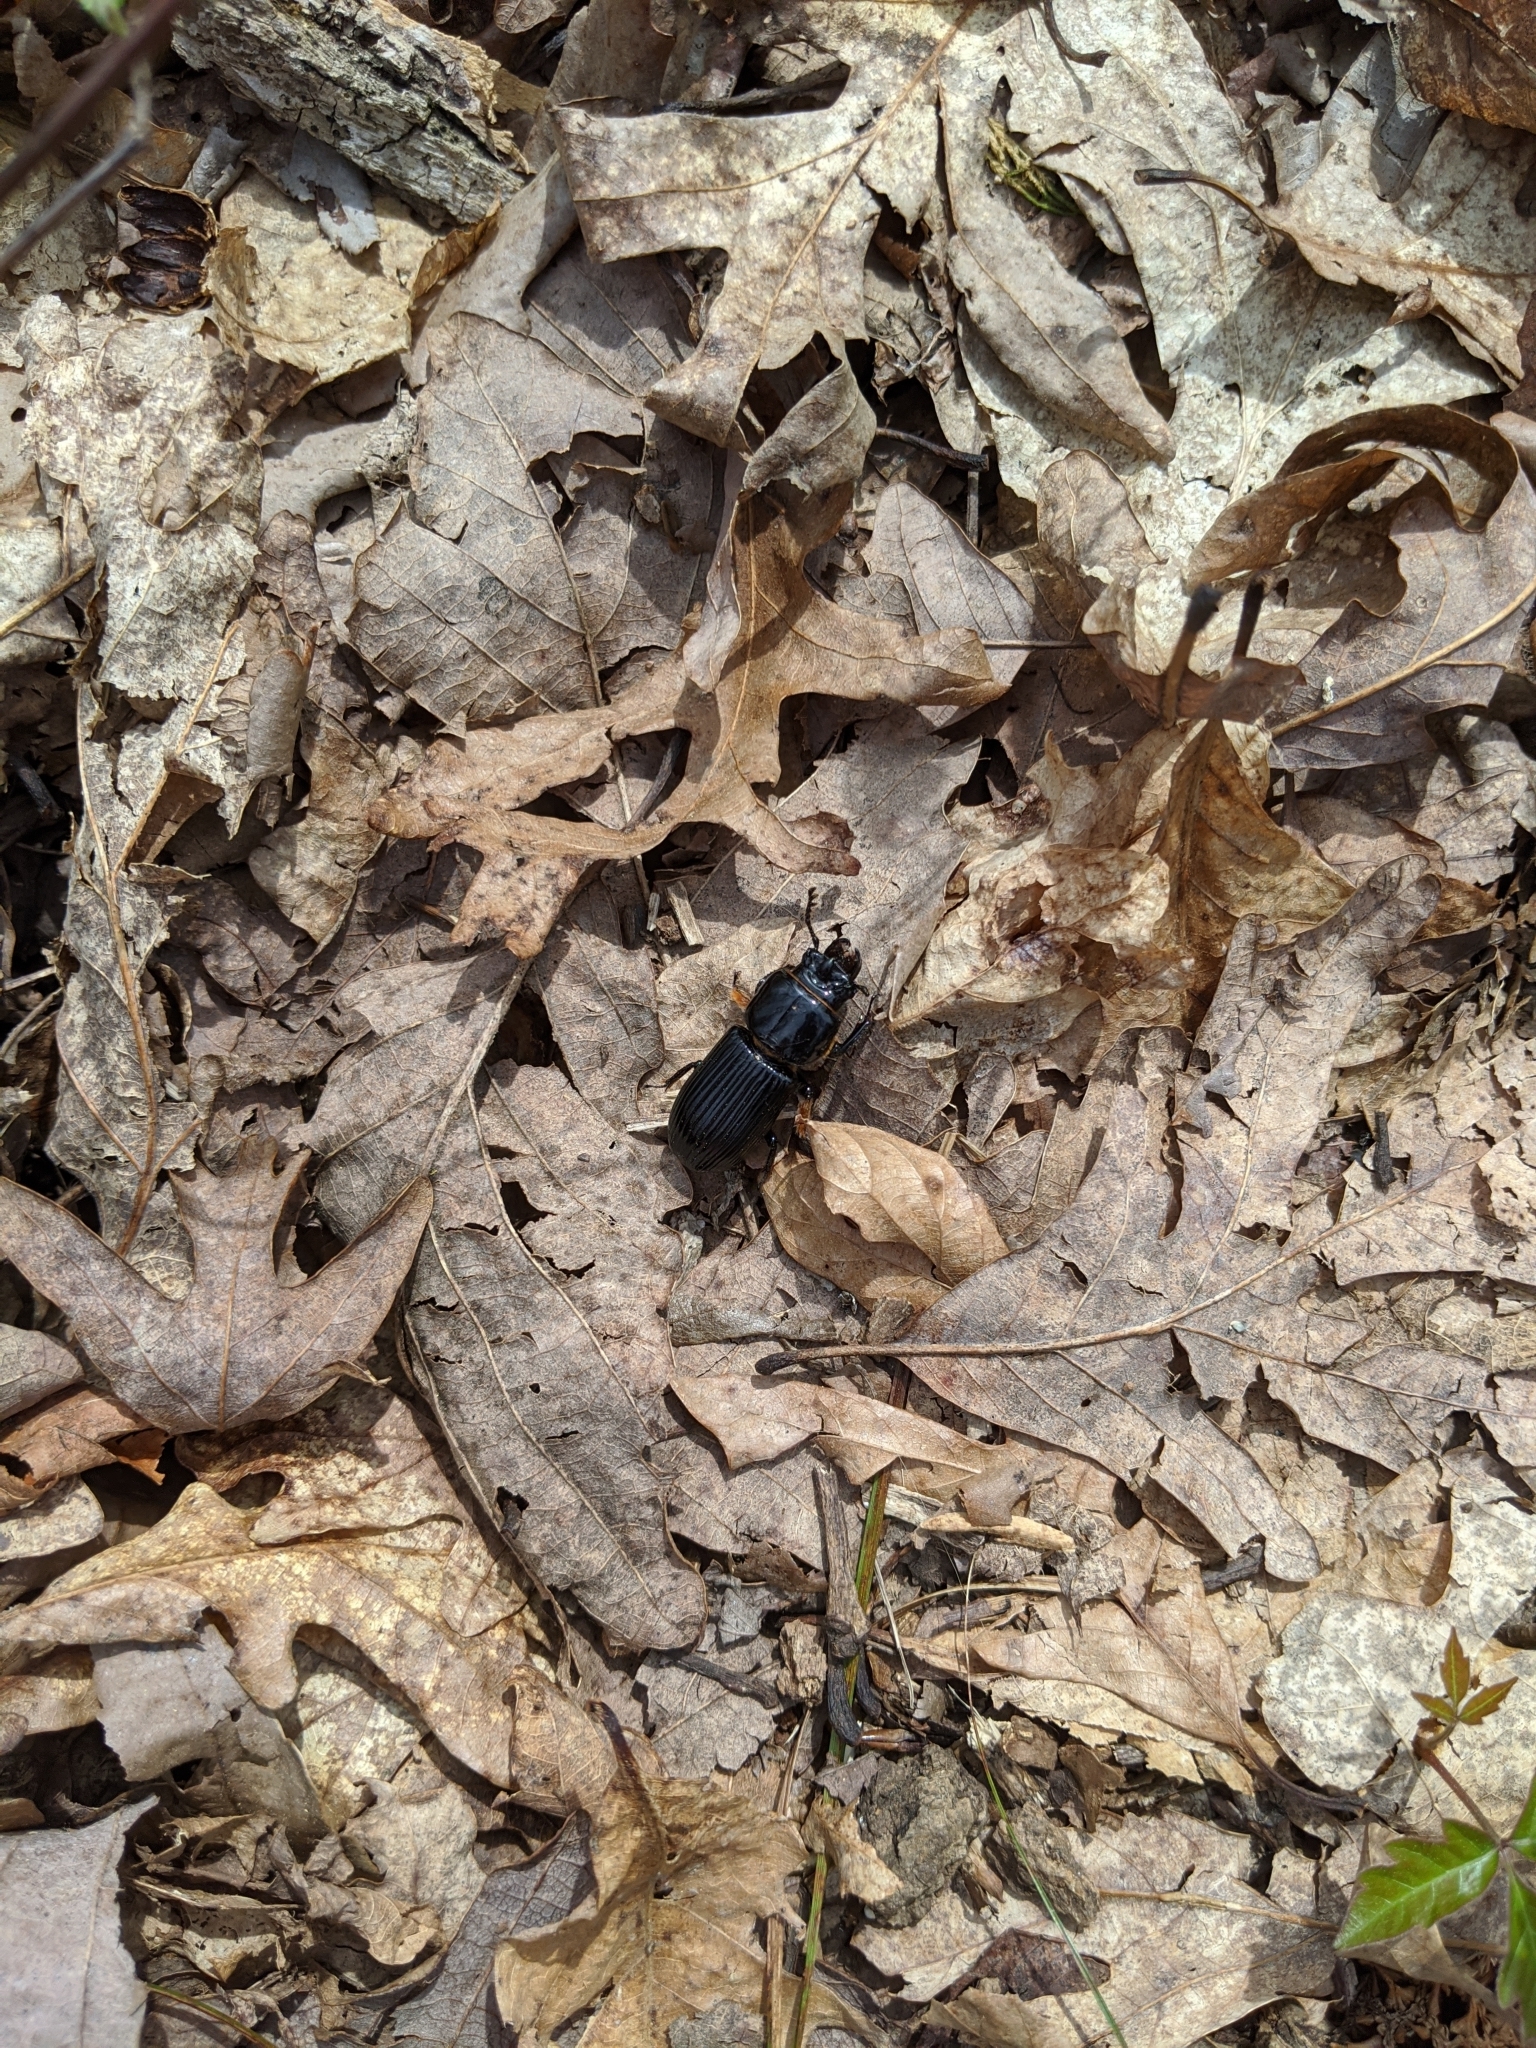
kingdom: Animalia
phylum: Arthropoda
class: Insecta
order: Coleoptera
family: Passalidae
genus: Odontotaenius
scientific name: Odontotaenius disjunctus
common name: Patent leather beetle
